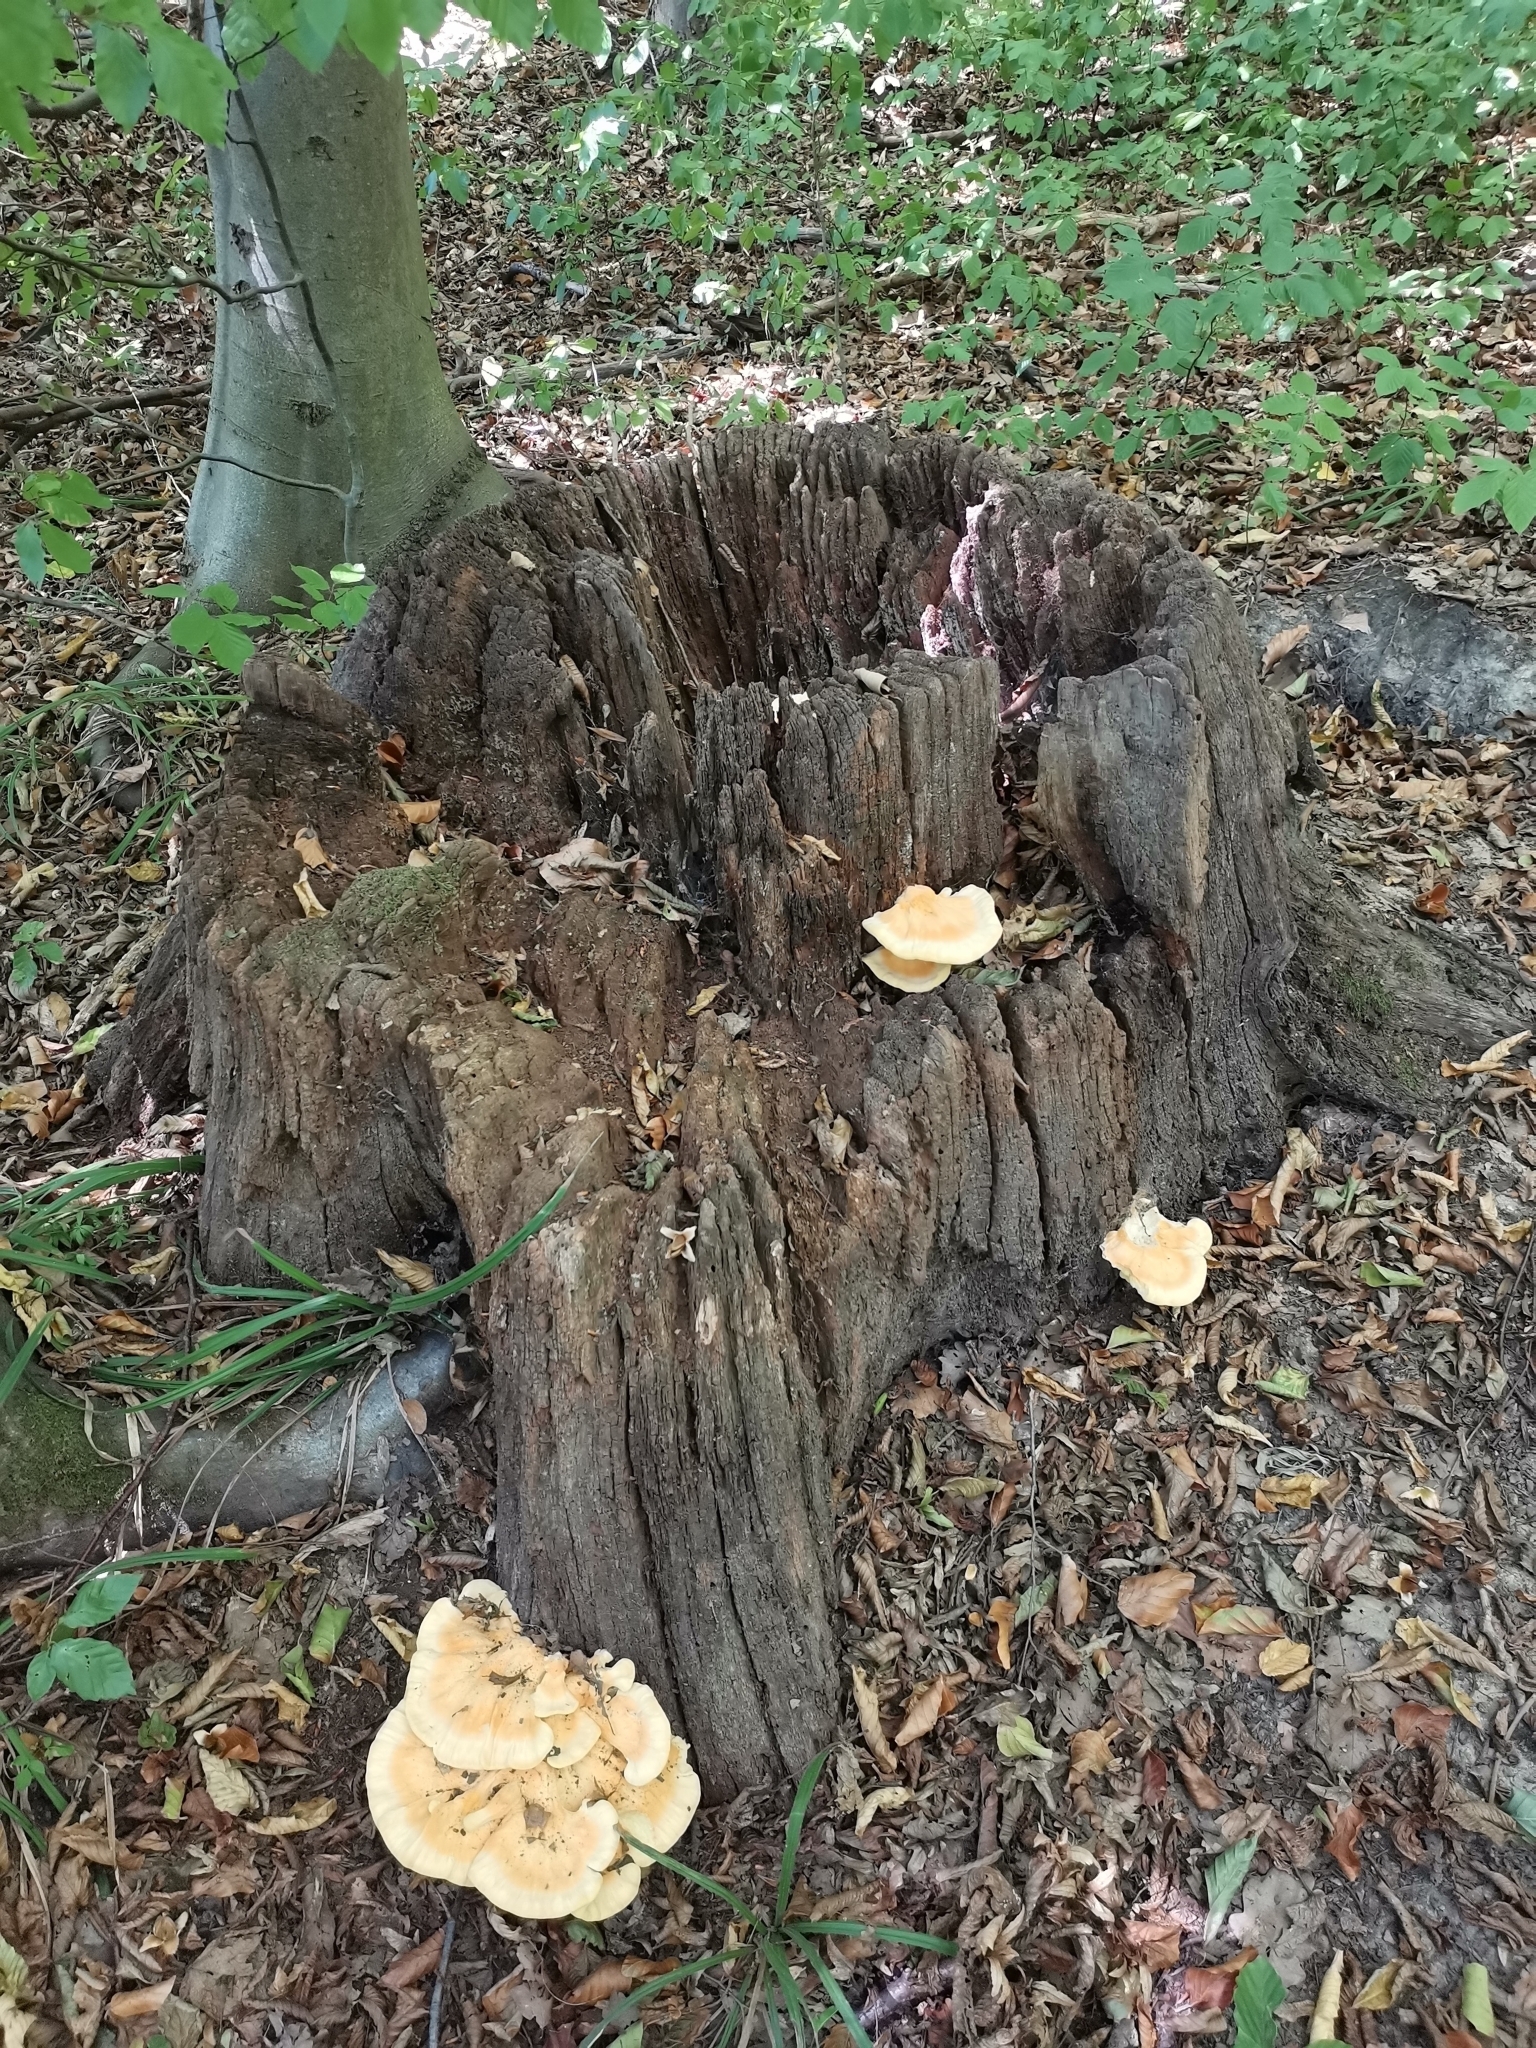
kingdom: Fungi
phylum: Basidiomycota
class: Agaricomycetes
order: Polyporales
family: Laetiporaceae
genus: Laetiporus
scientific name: Laetiporus sulphureus
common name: Chicken of the woods
